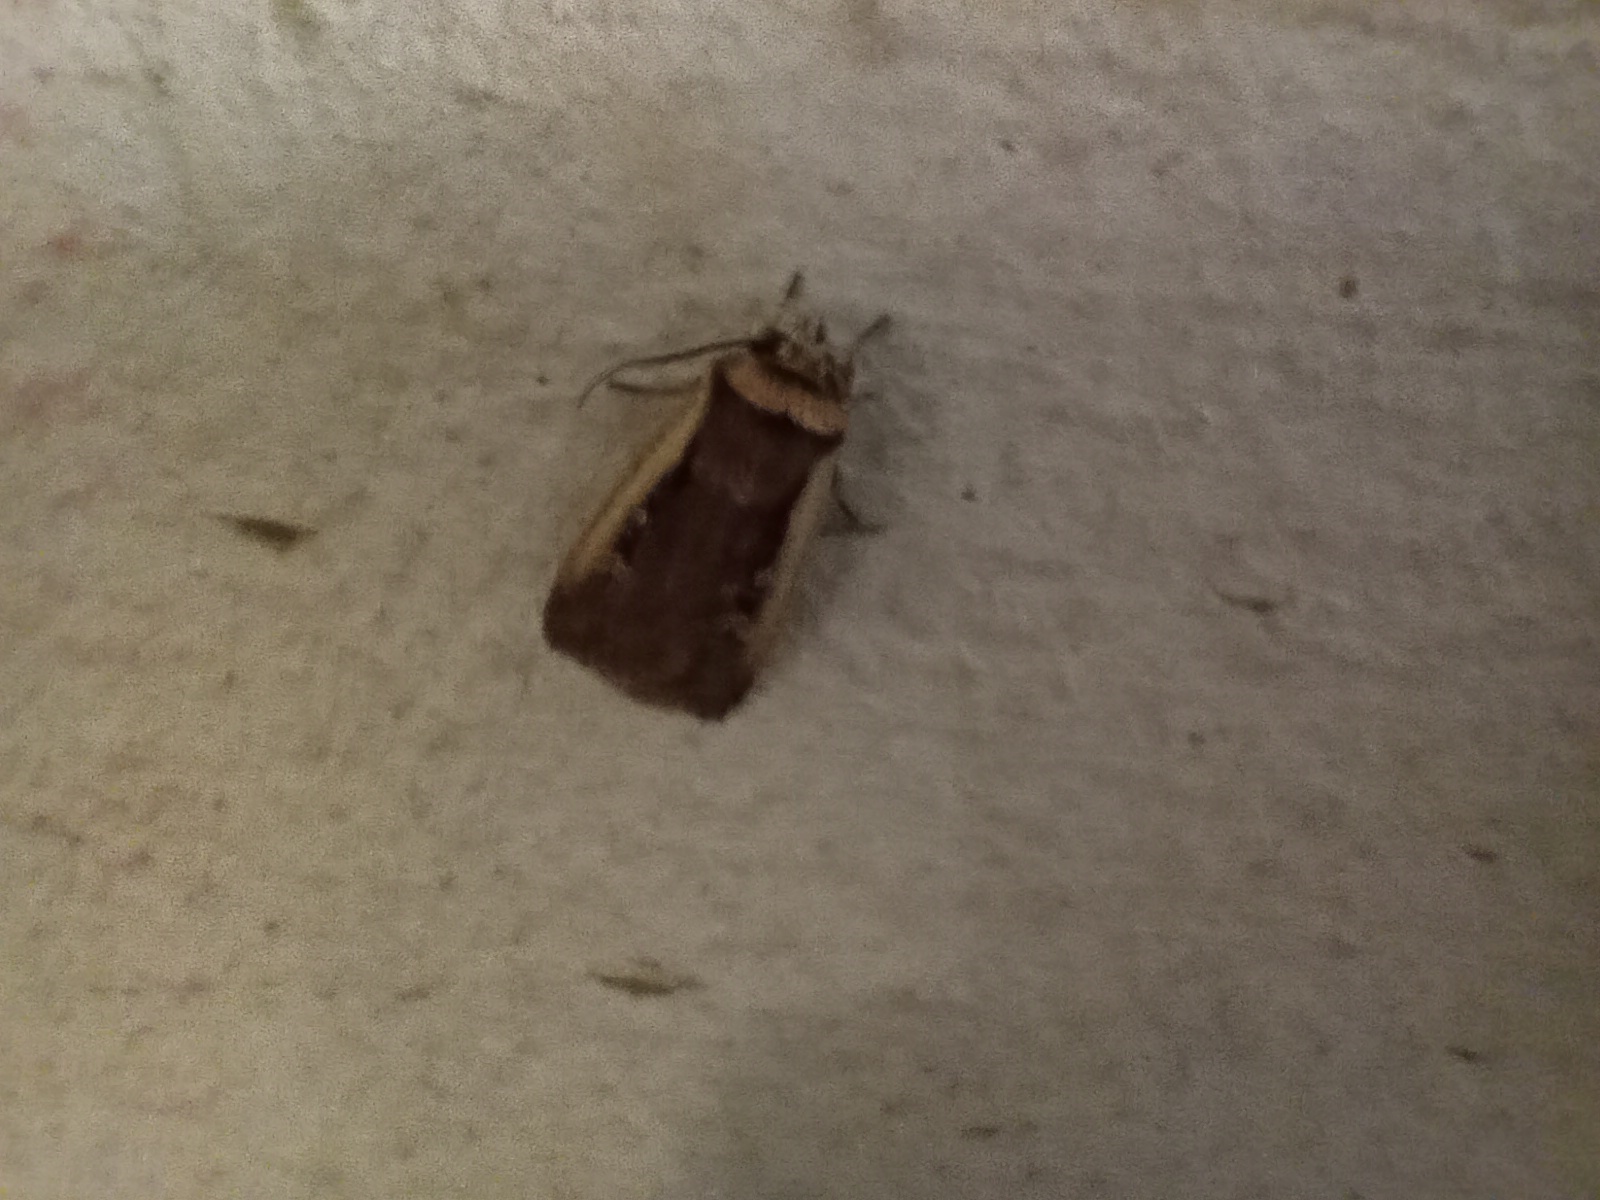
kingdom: Animalia
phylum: Arthropoda
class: Insecta
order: Lepidoptera
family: Noctuidae
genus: Ochropleura
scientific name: Ochropleura plecta
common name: Flame shoulder
